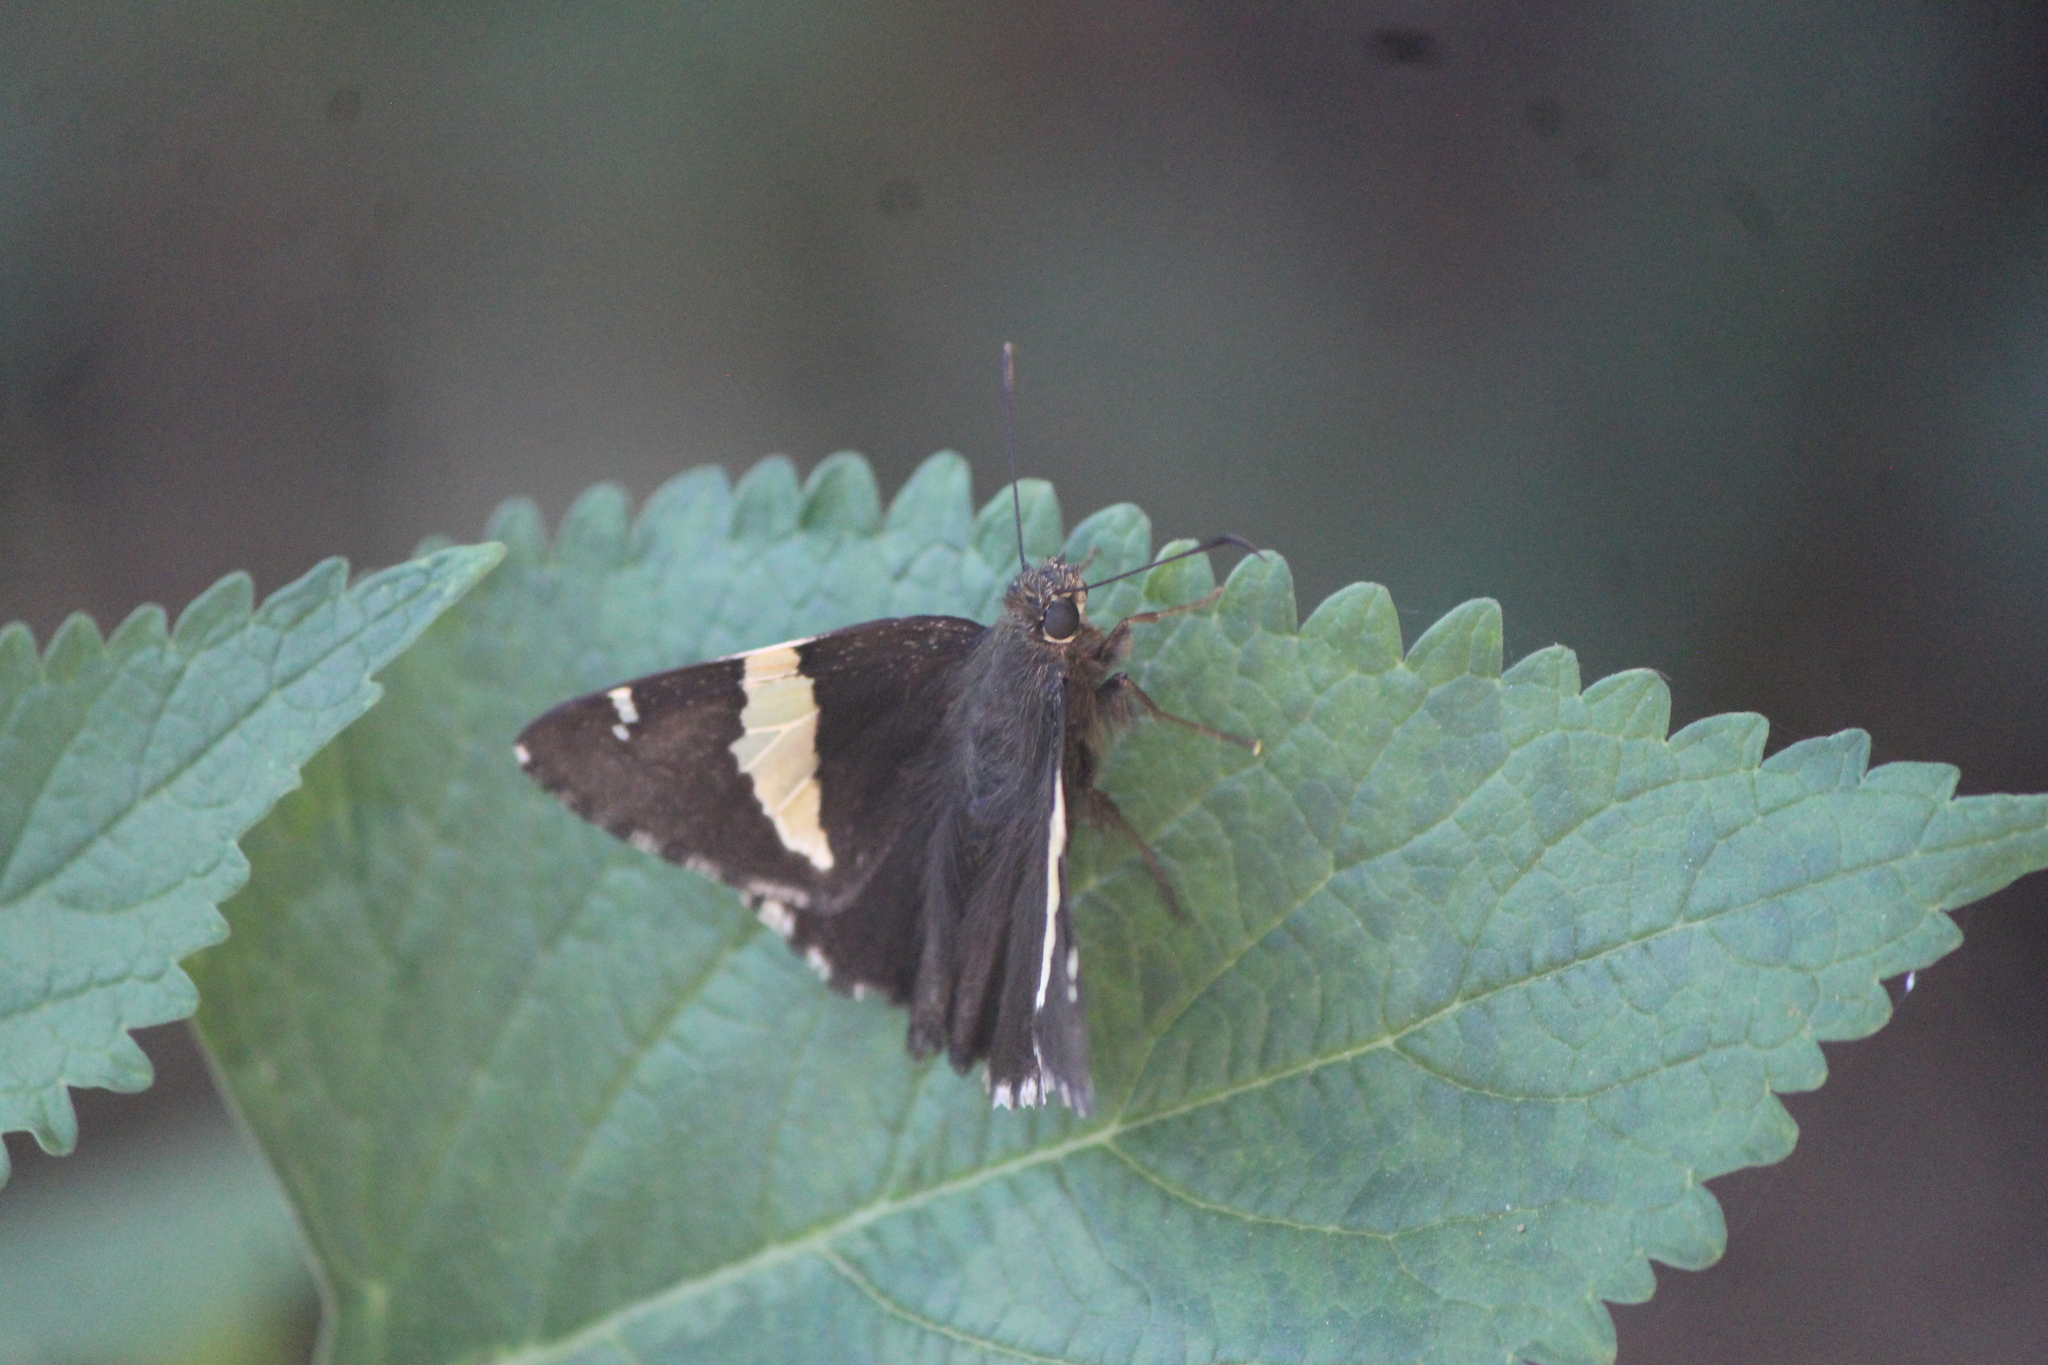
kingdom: Animalia
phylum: Arthropoda
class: Arachnida
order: Scorpiones
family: Bothriuridae
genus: Telegonus
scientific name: Telegonus cellus
